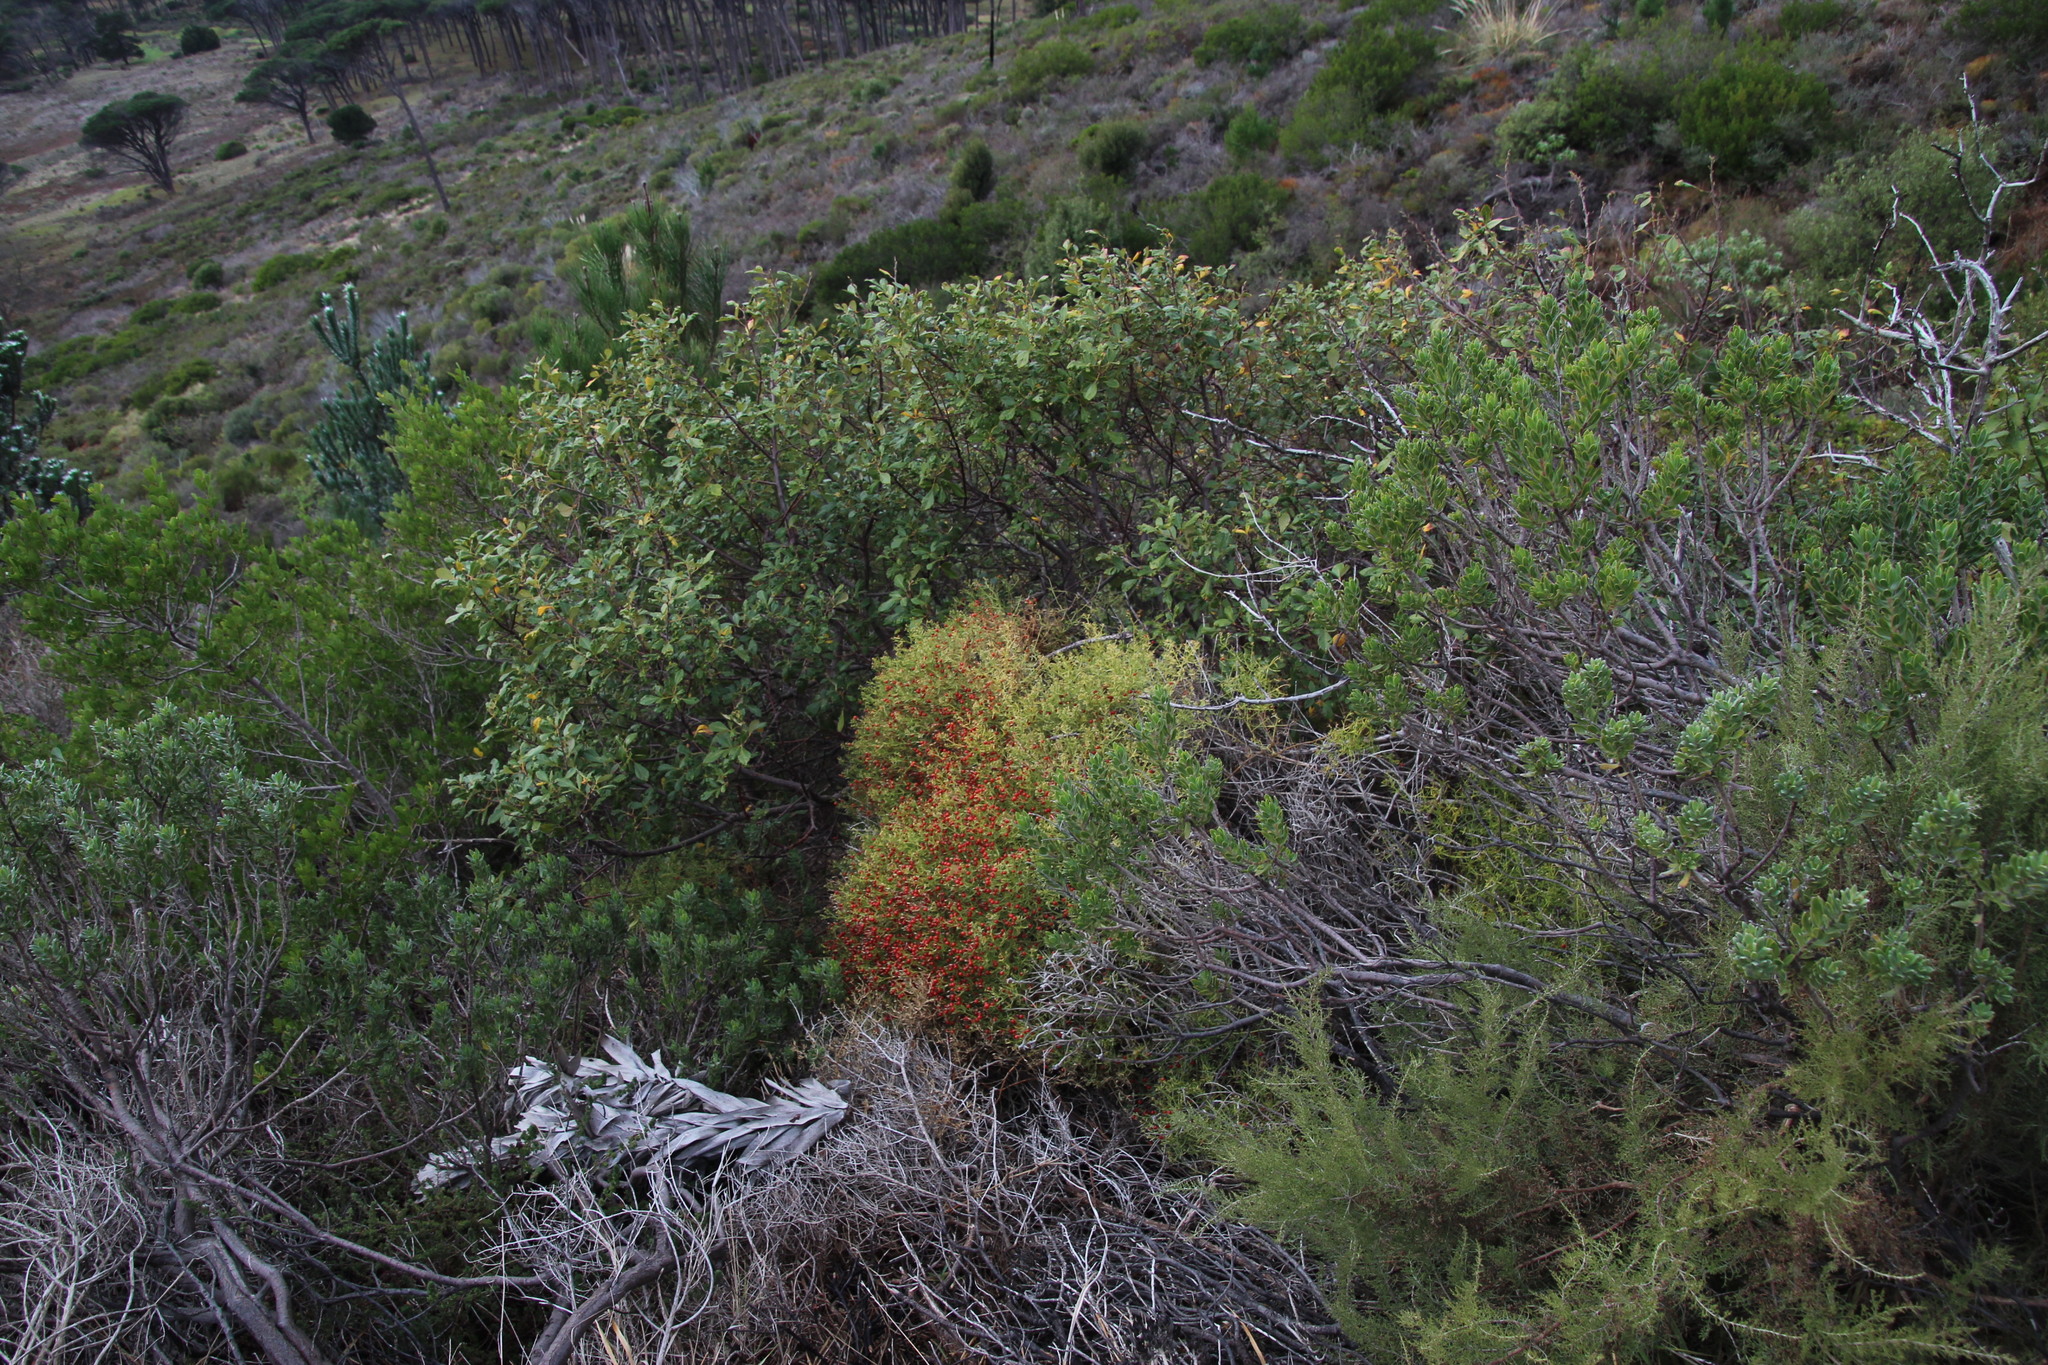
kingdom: Plantae
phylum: Tracheophyta
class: Magnoliopsida
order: Gentianales
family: Gentianaceae
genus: Chironia
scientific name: Chironia baccifera
